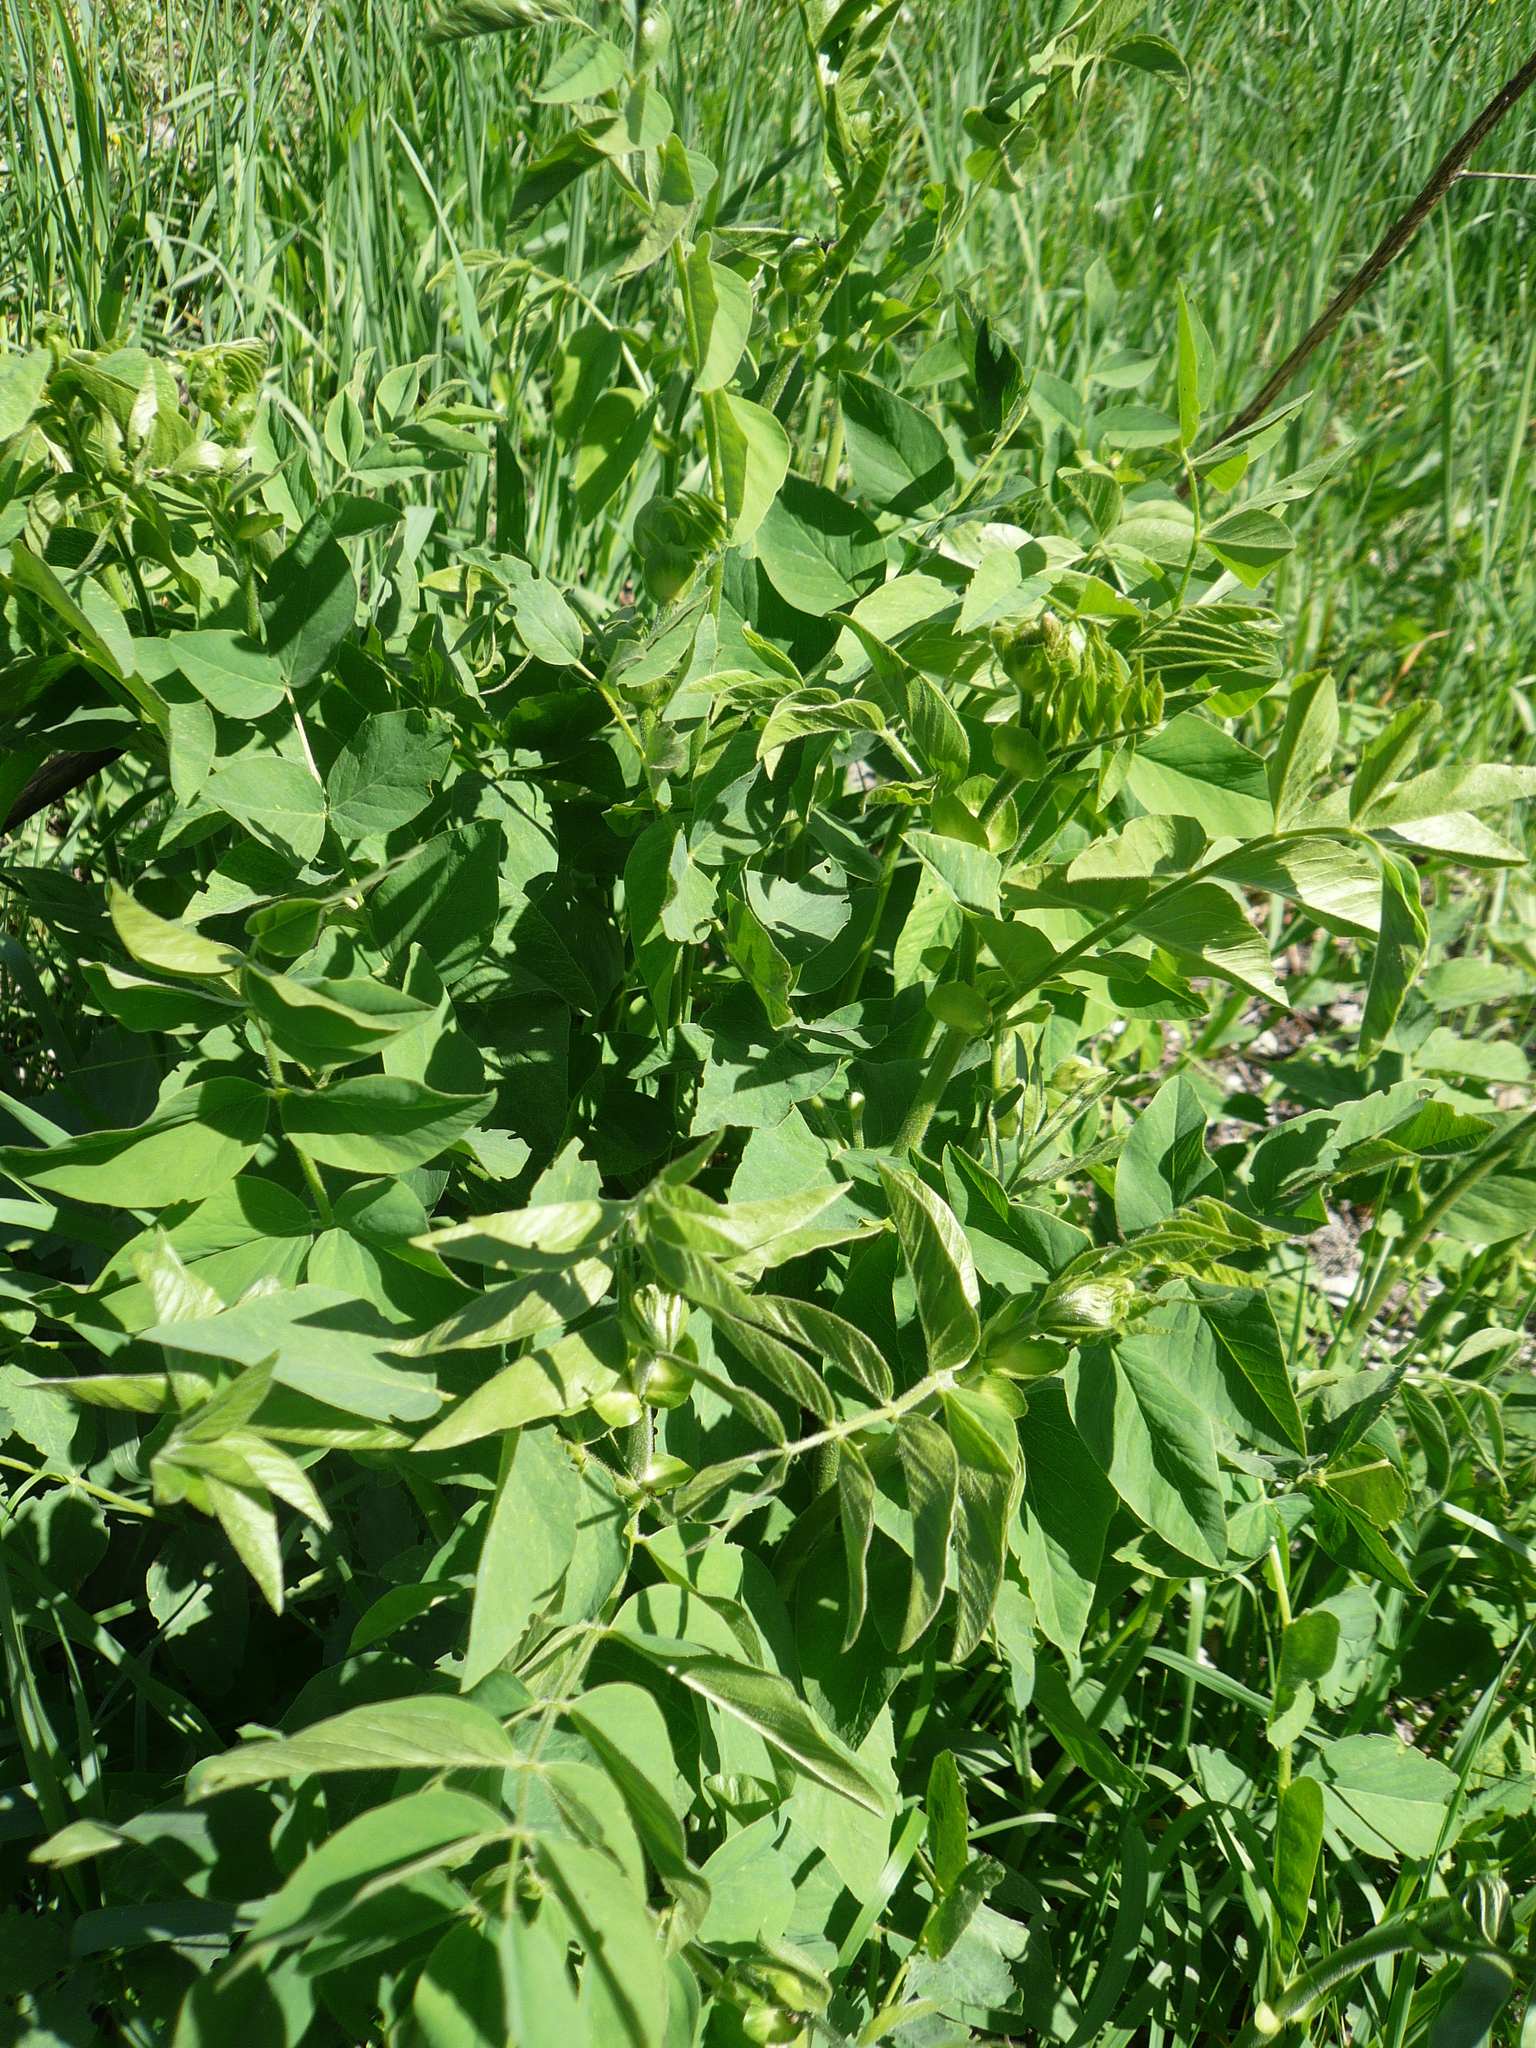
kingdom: Plantae
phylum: Tracheophyta
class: Magnoliopsida
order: Fabales
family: Fabaceae
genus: Galega
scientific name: Galega orientalis
